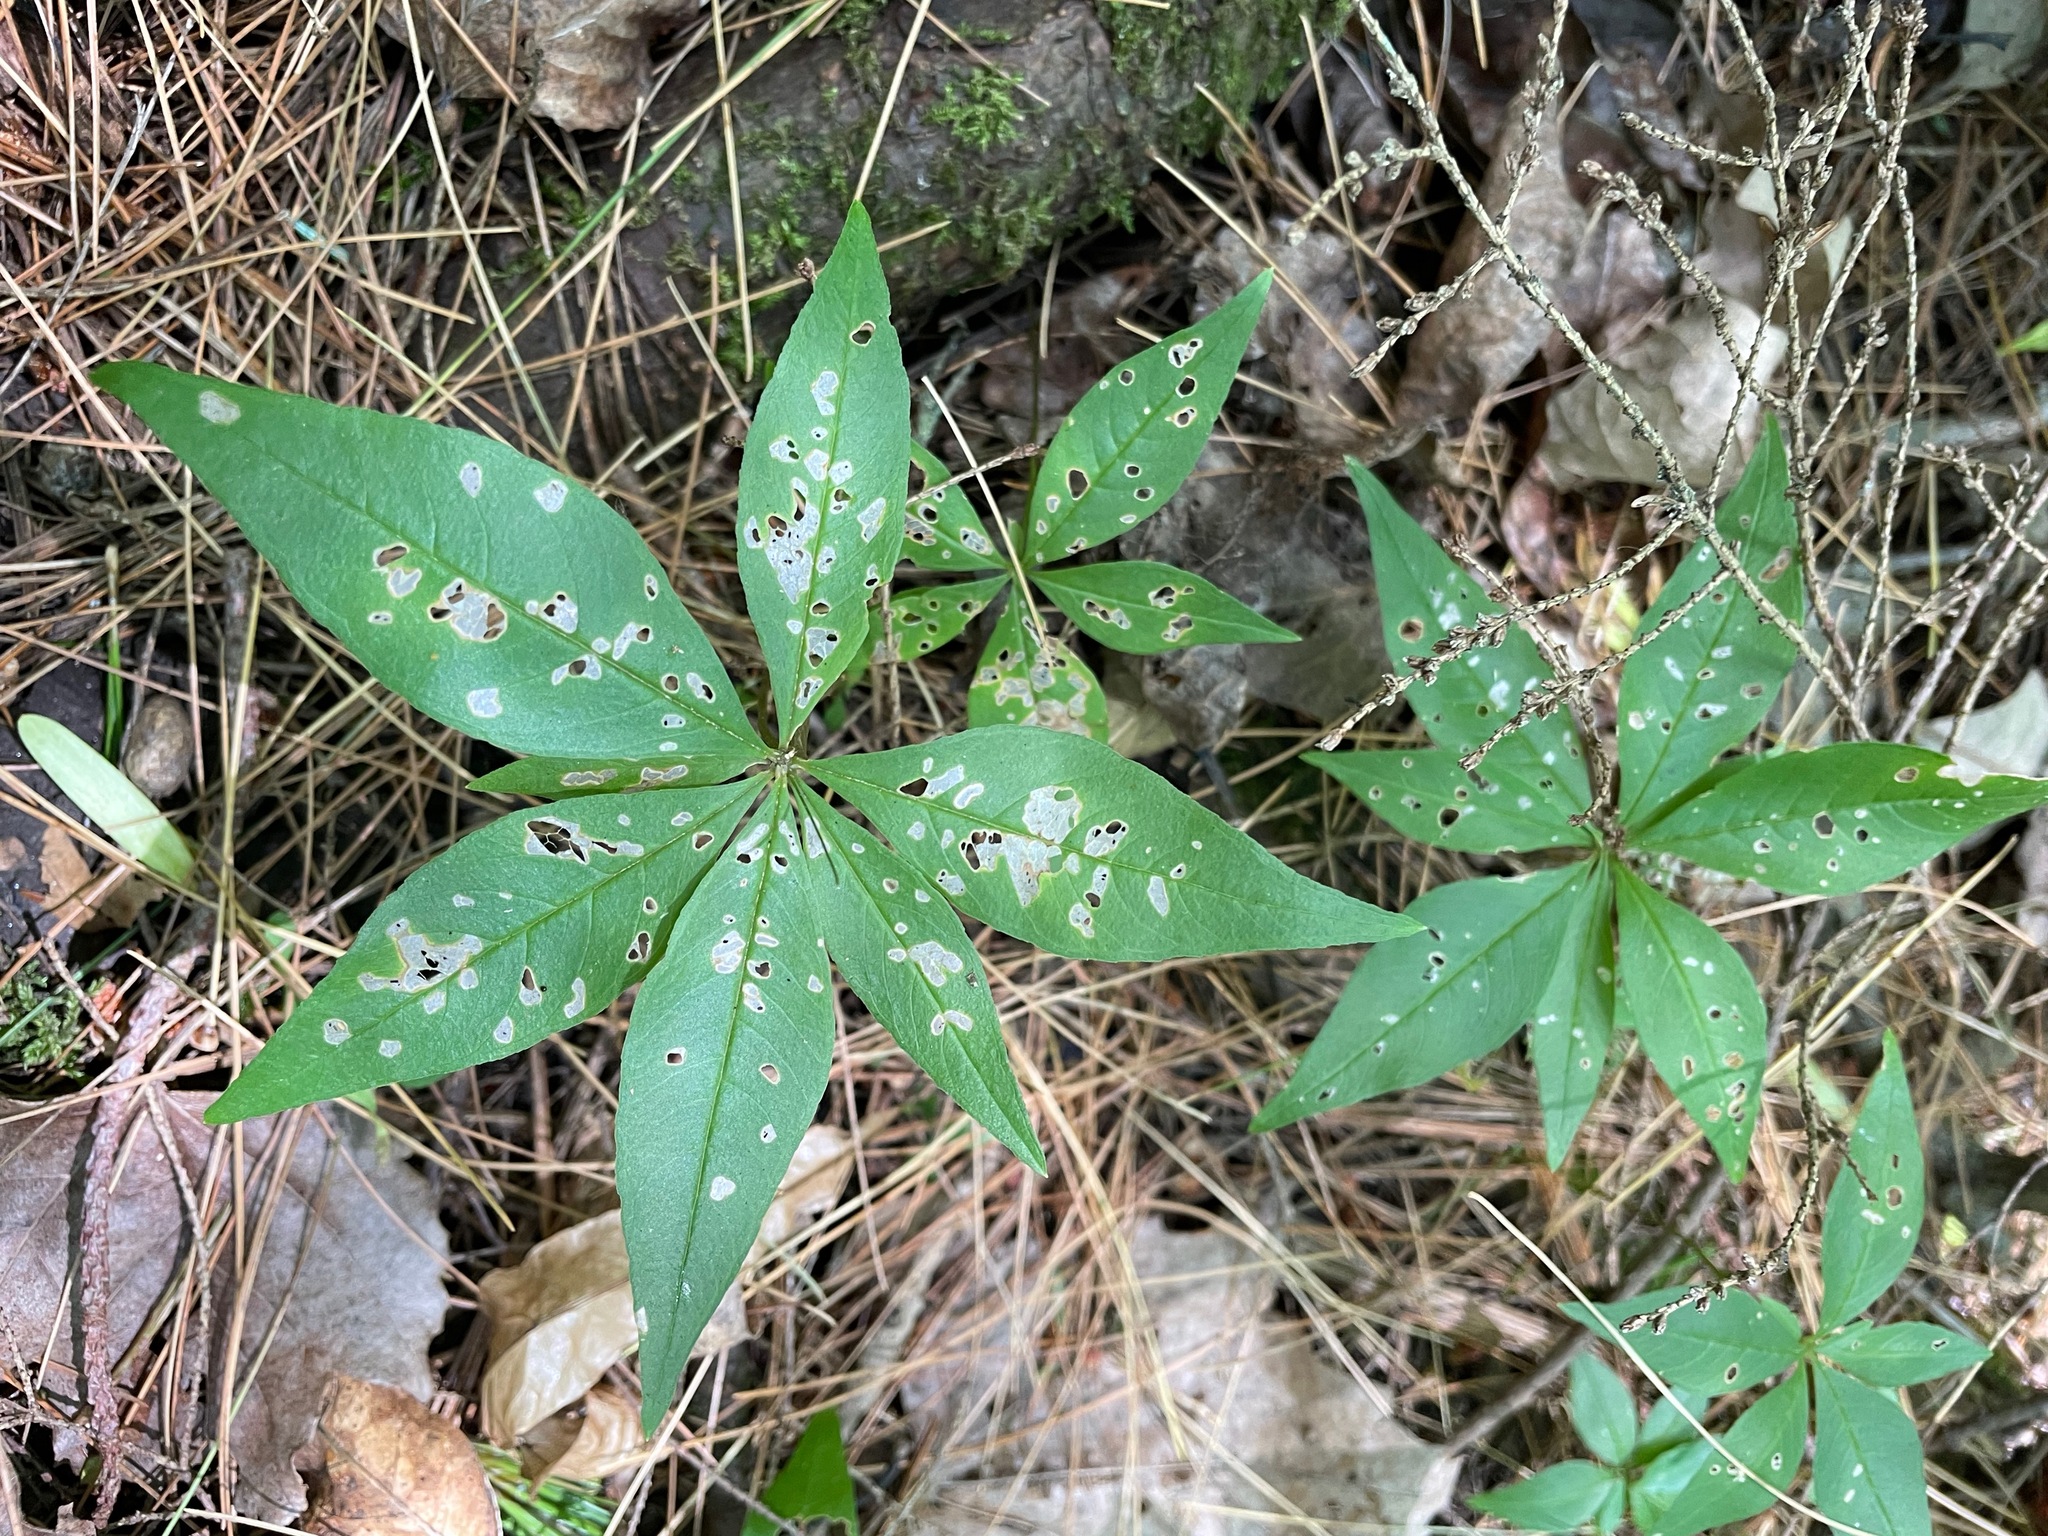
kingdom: Plantae
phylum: Tracheophyta
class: Magnoliopsida
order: Ericales
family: Primulaceae
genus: Lysimachia
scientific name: Lysimachia borealis
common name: American starflower
